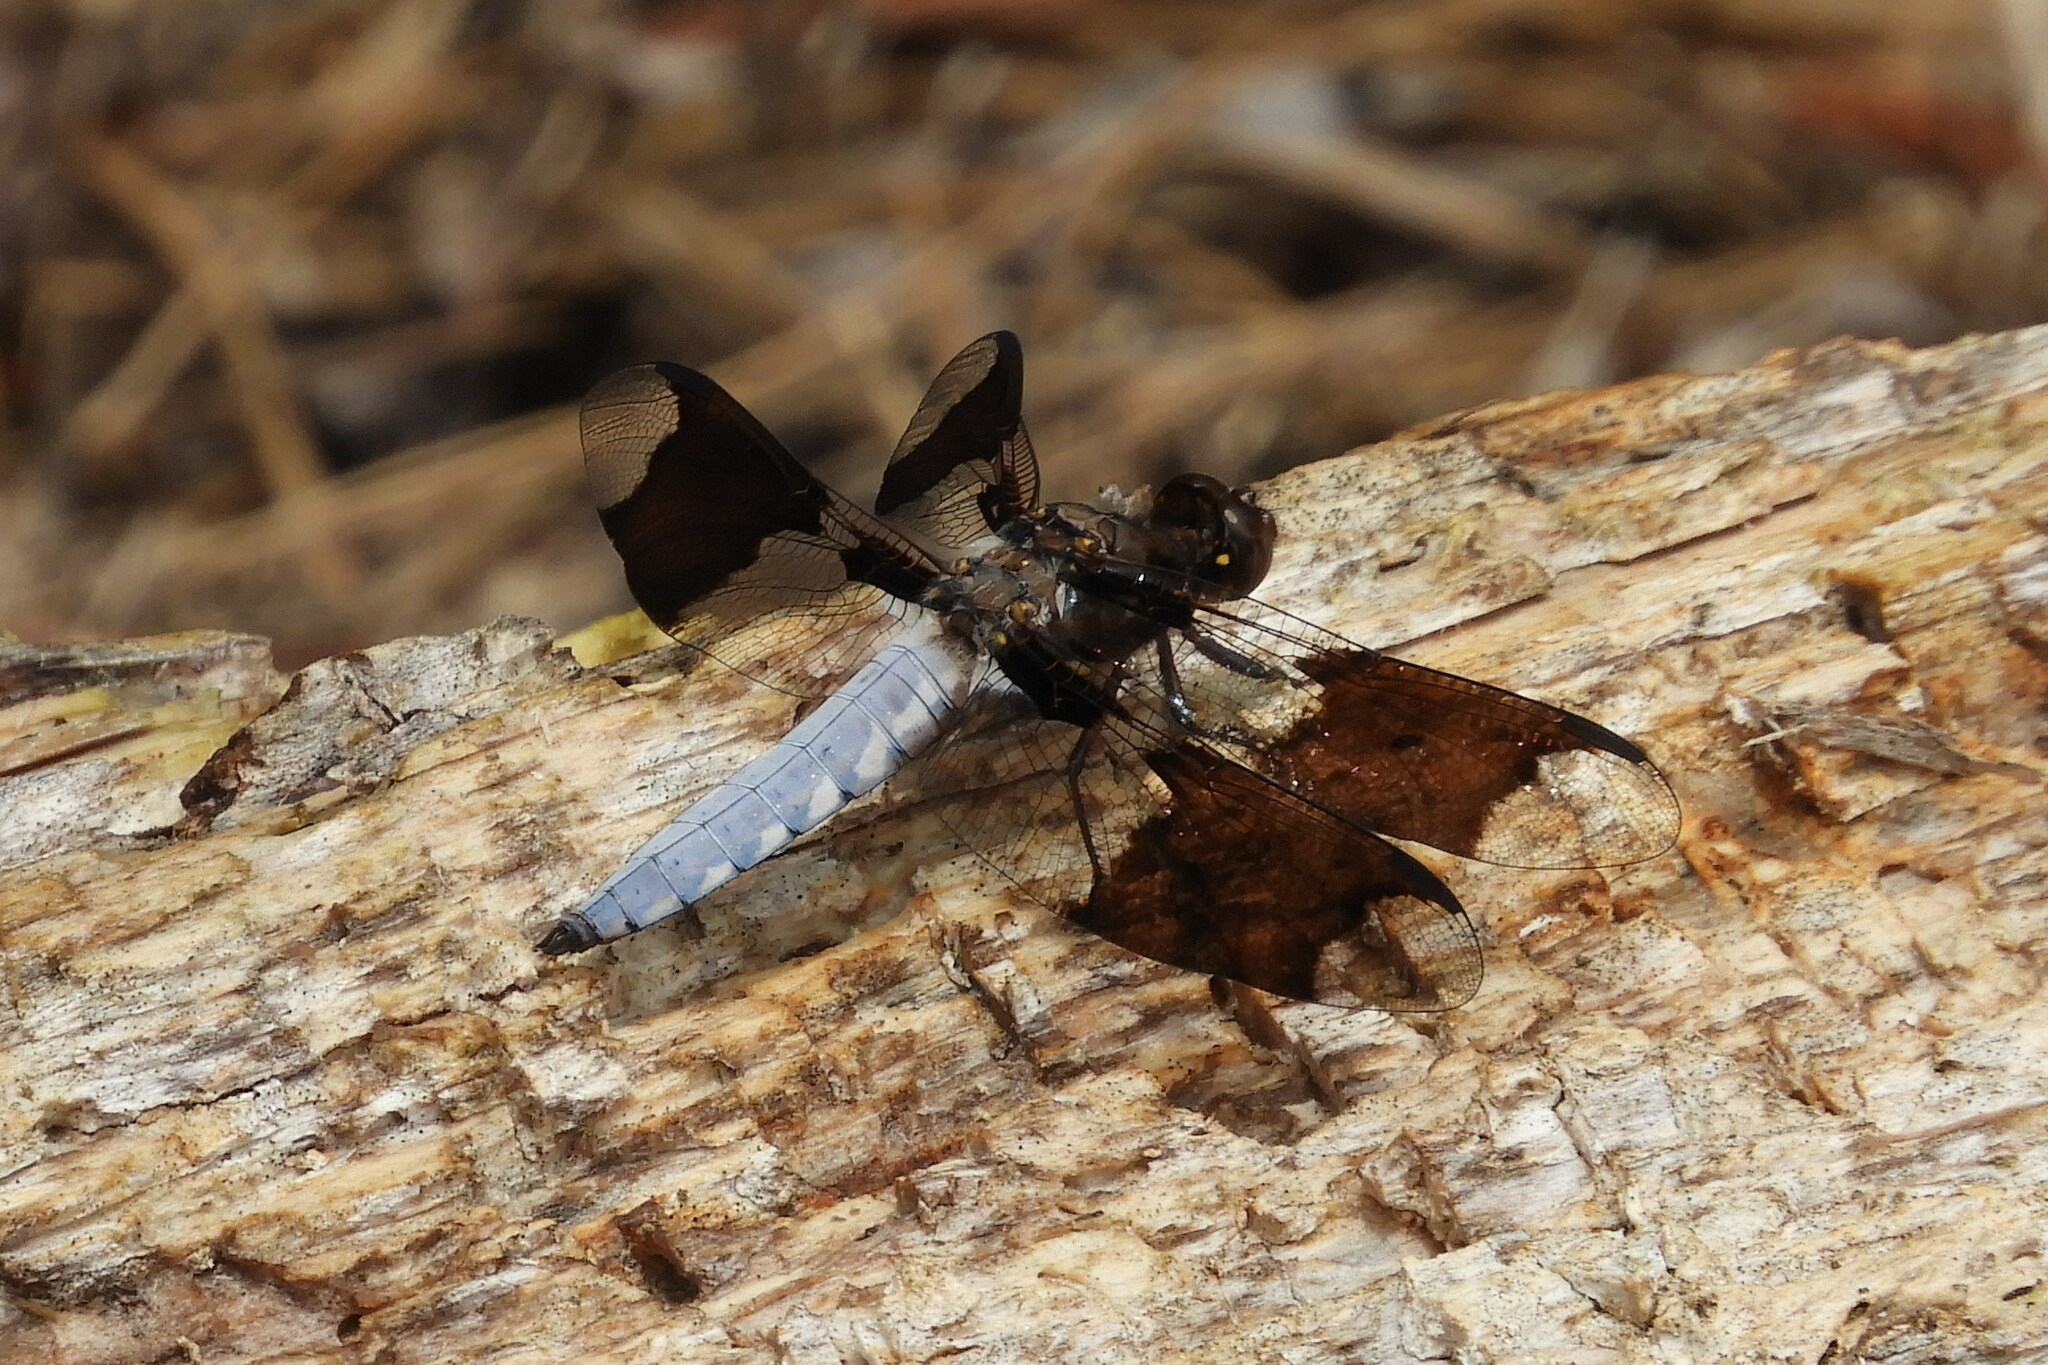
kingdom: Animalia
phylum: Arthropoda
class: Insecta
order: Odonata
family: Libellulidae
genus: Plathemis
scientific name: Plathemis lydia
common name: Common whitetail
